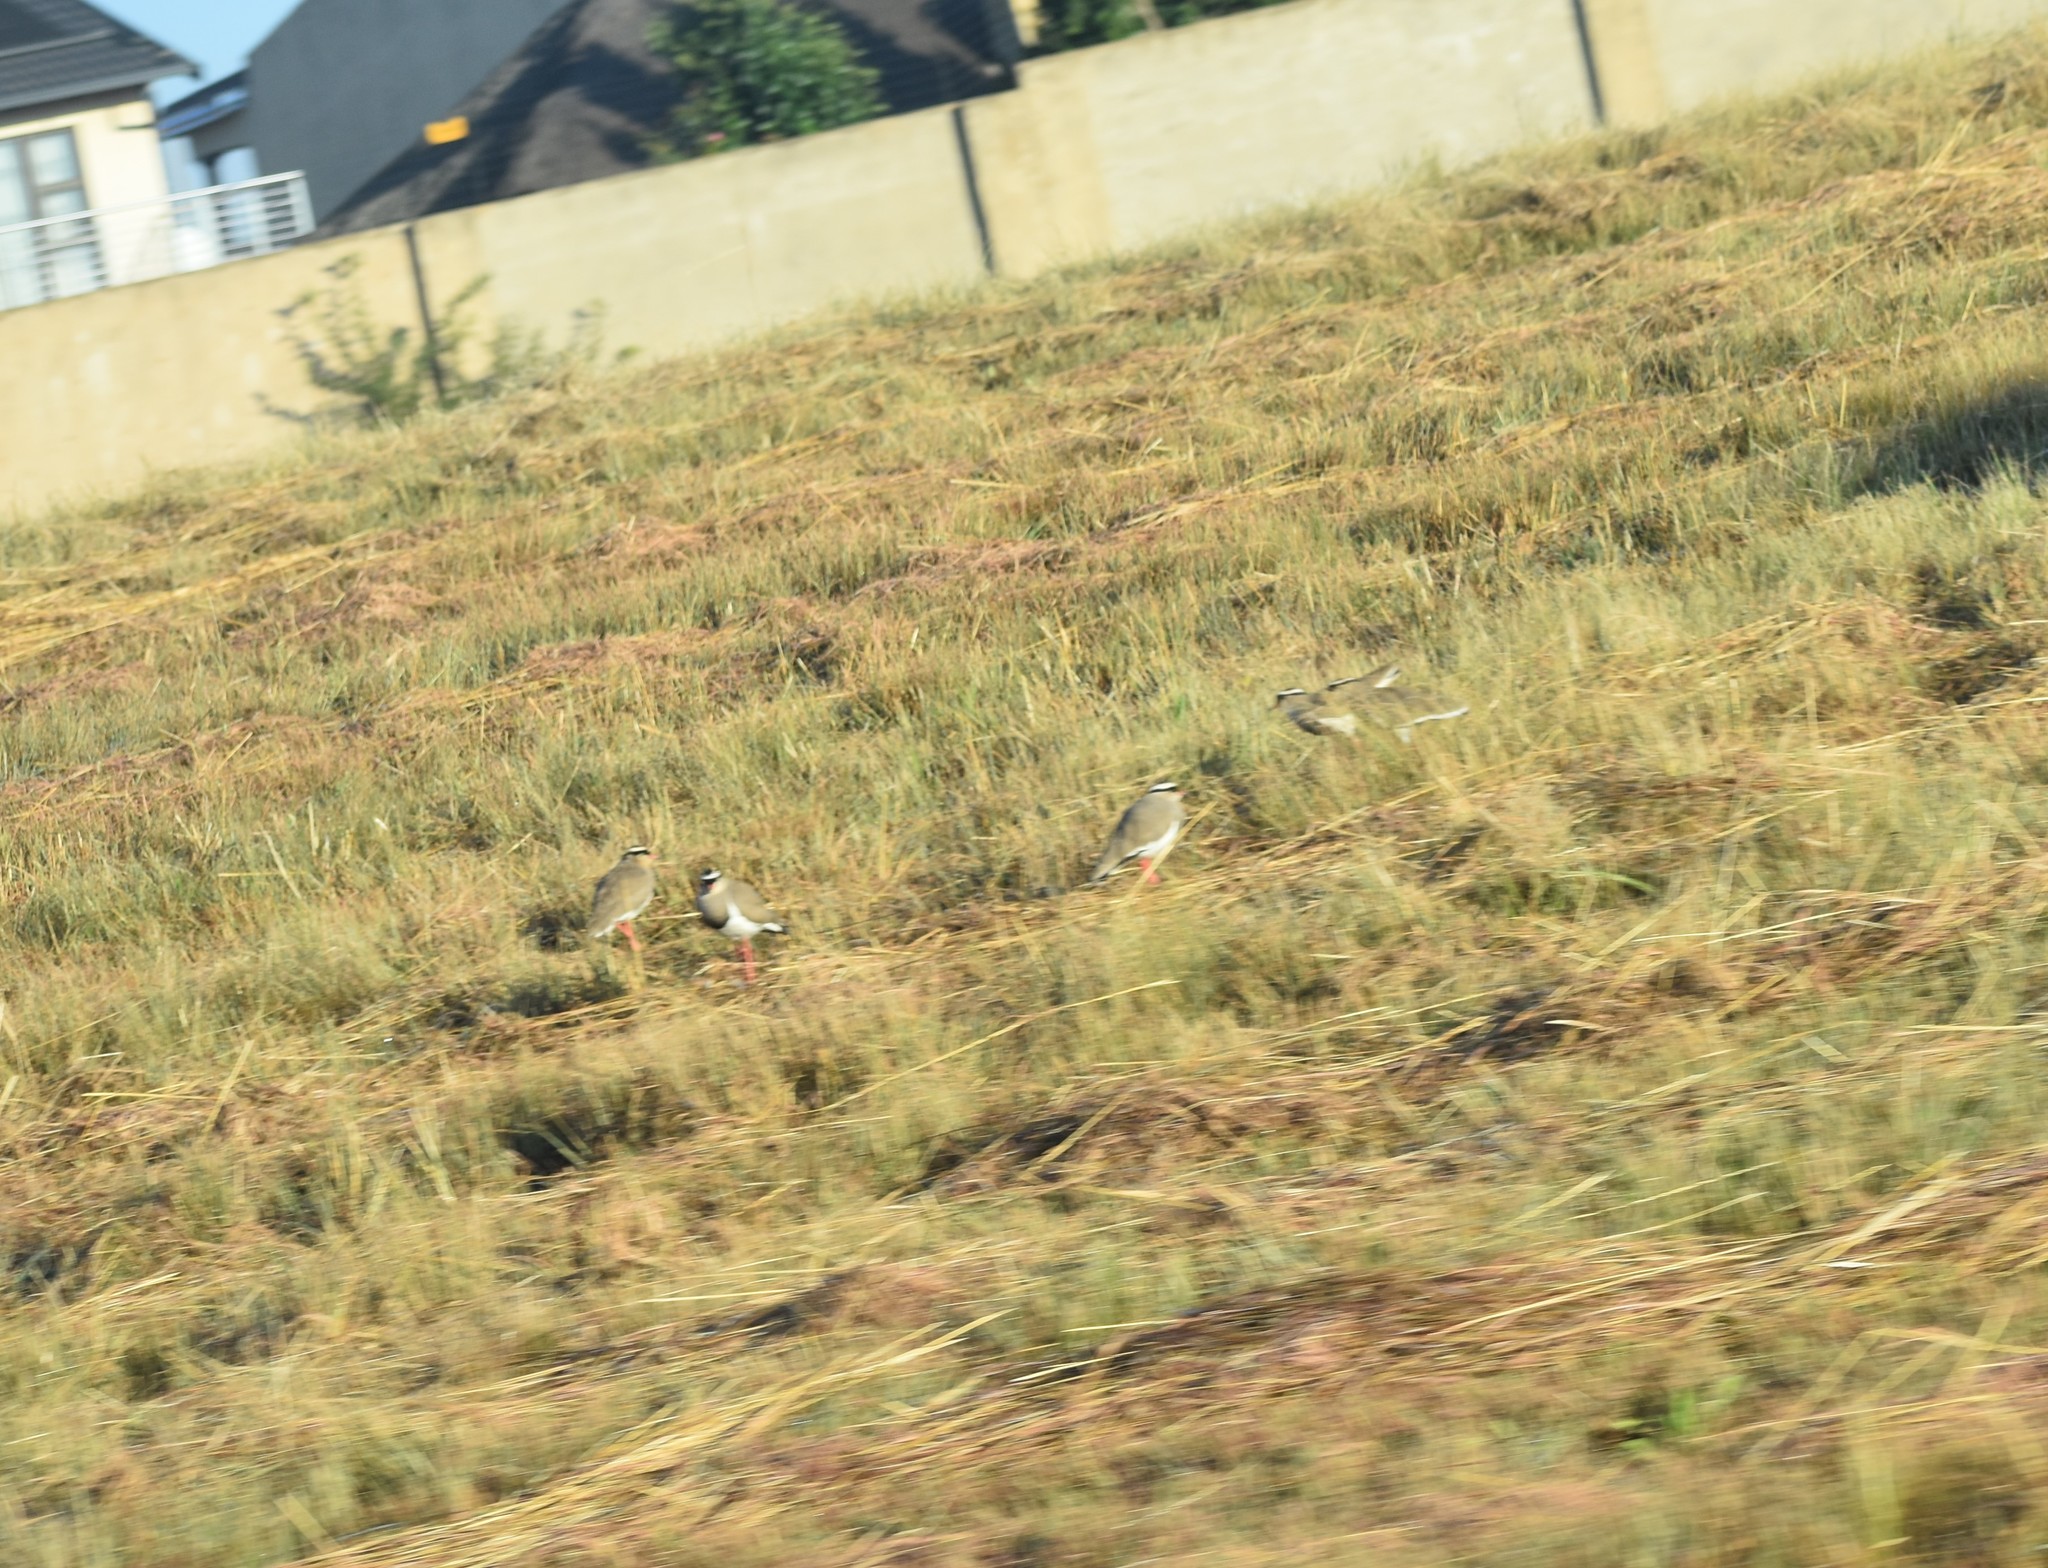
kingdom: Animalia
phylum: Chordata
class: Aves
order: Charadriiformes
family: Charadriidae
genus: Vanellus
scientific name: Vanellus coronatus
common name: Crowned lapwing
